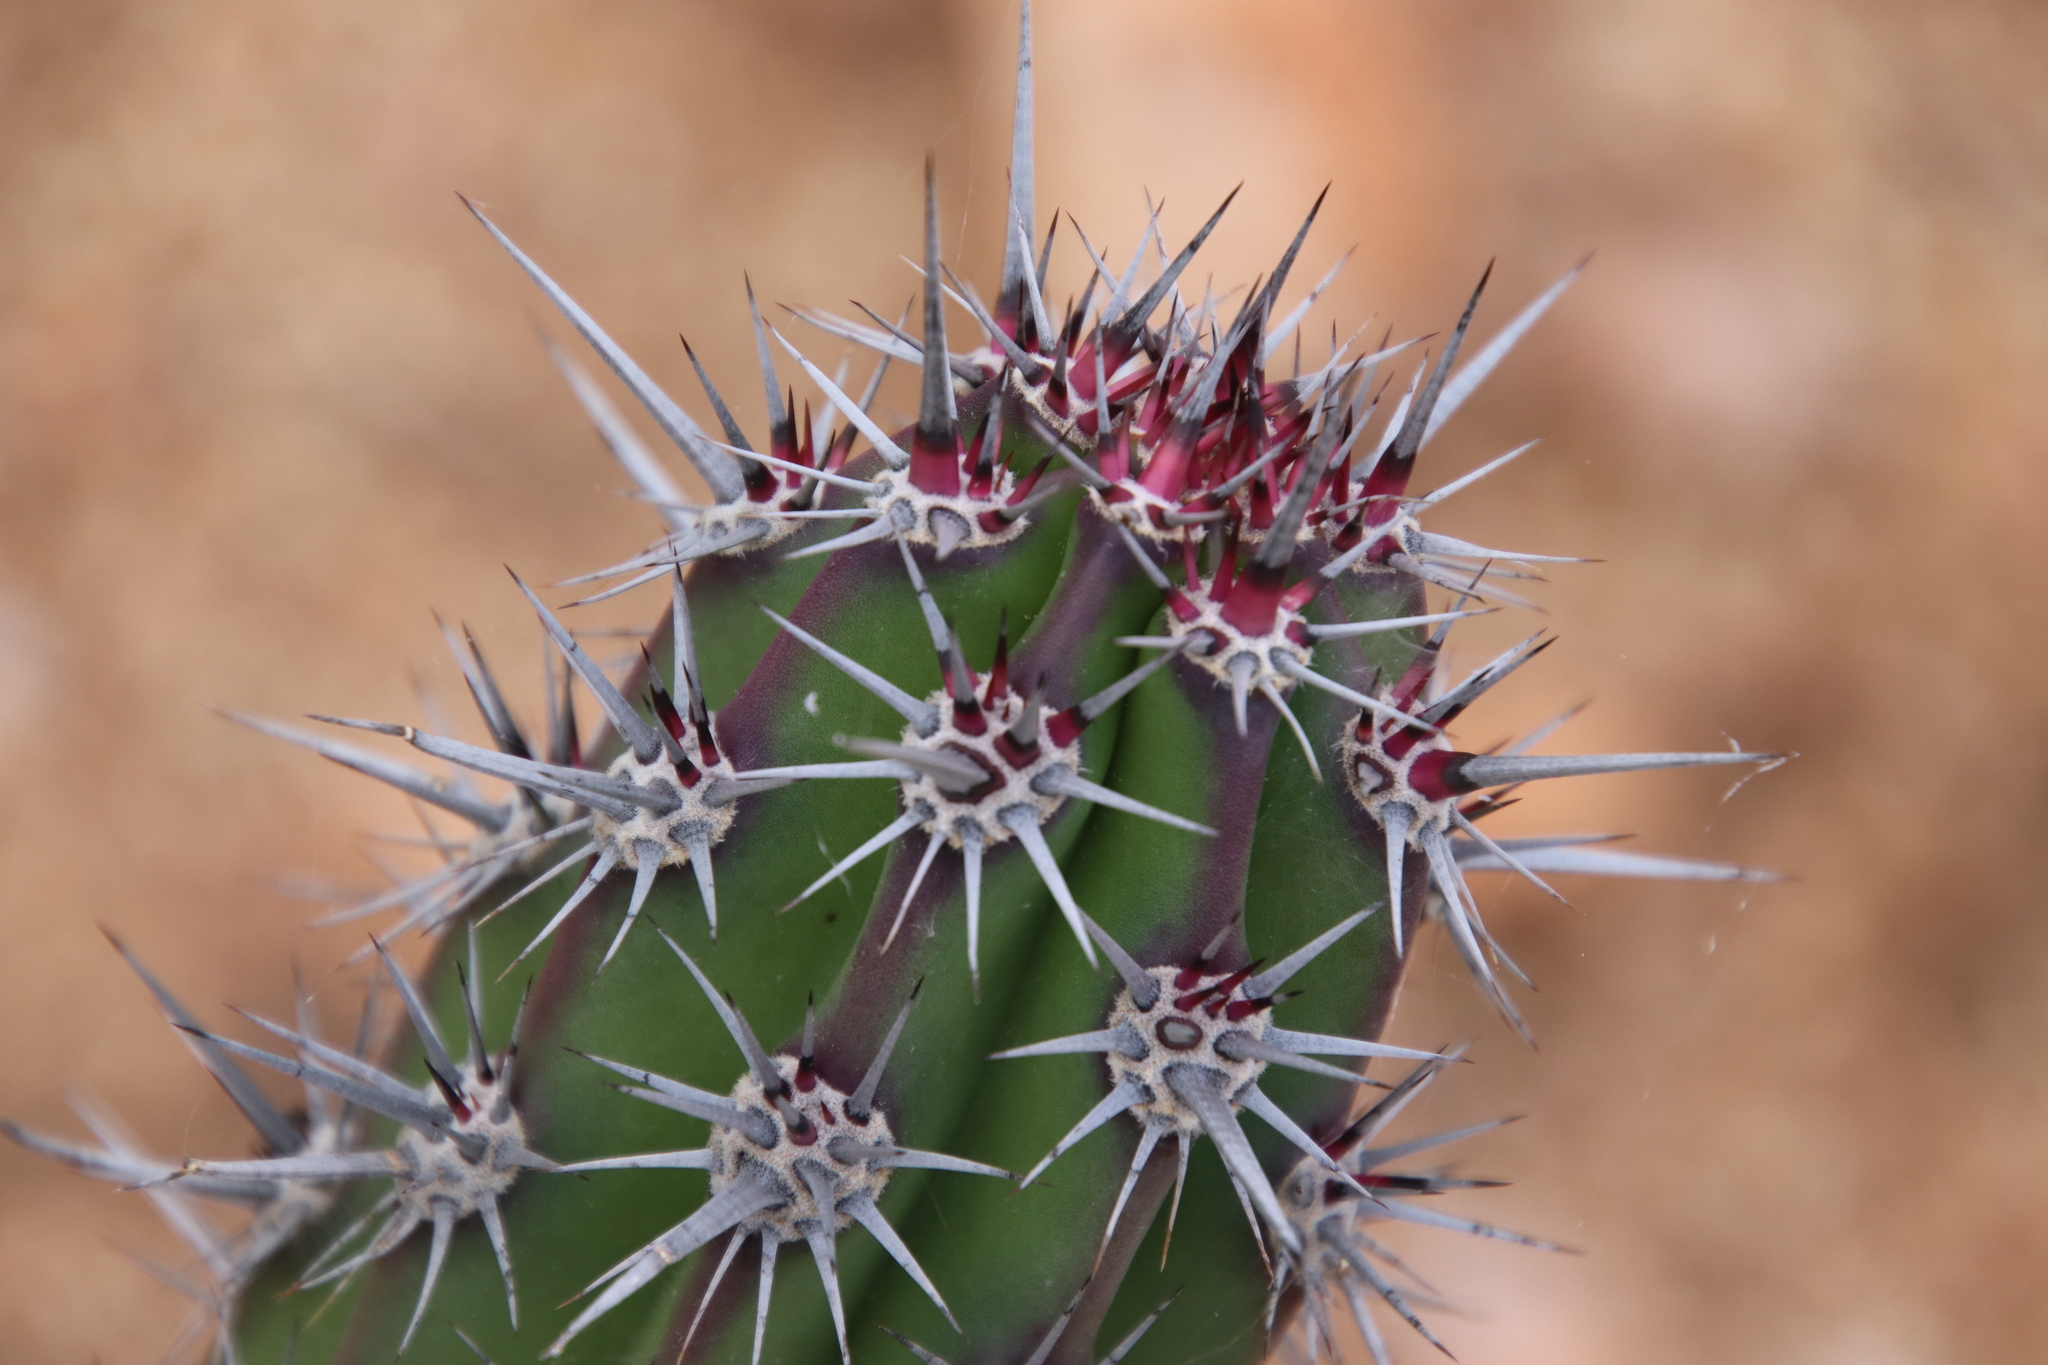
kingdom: Plantae
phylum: Tracheophyta
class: Magnoliopsida
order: Caryophyllales
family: Cactaceae
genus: Stenocereus
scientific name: Stenocereus gummosus
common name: Dagger cactus
